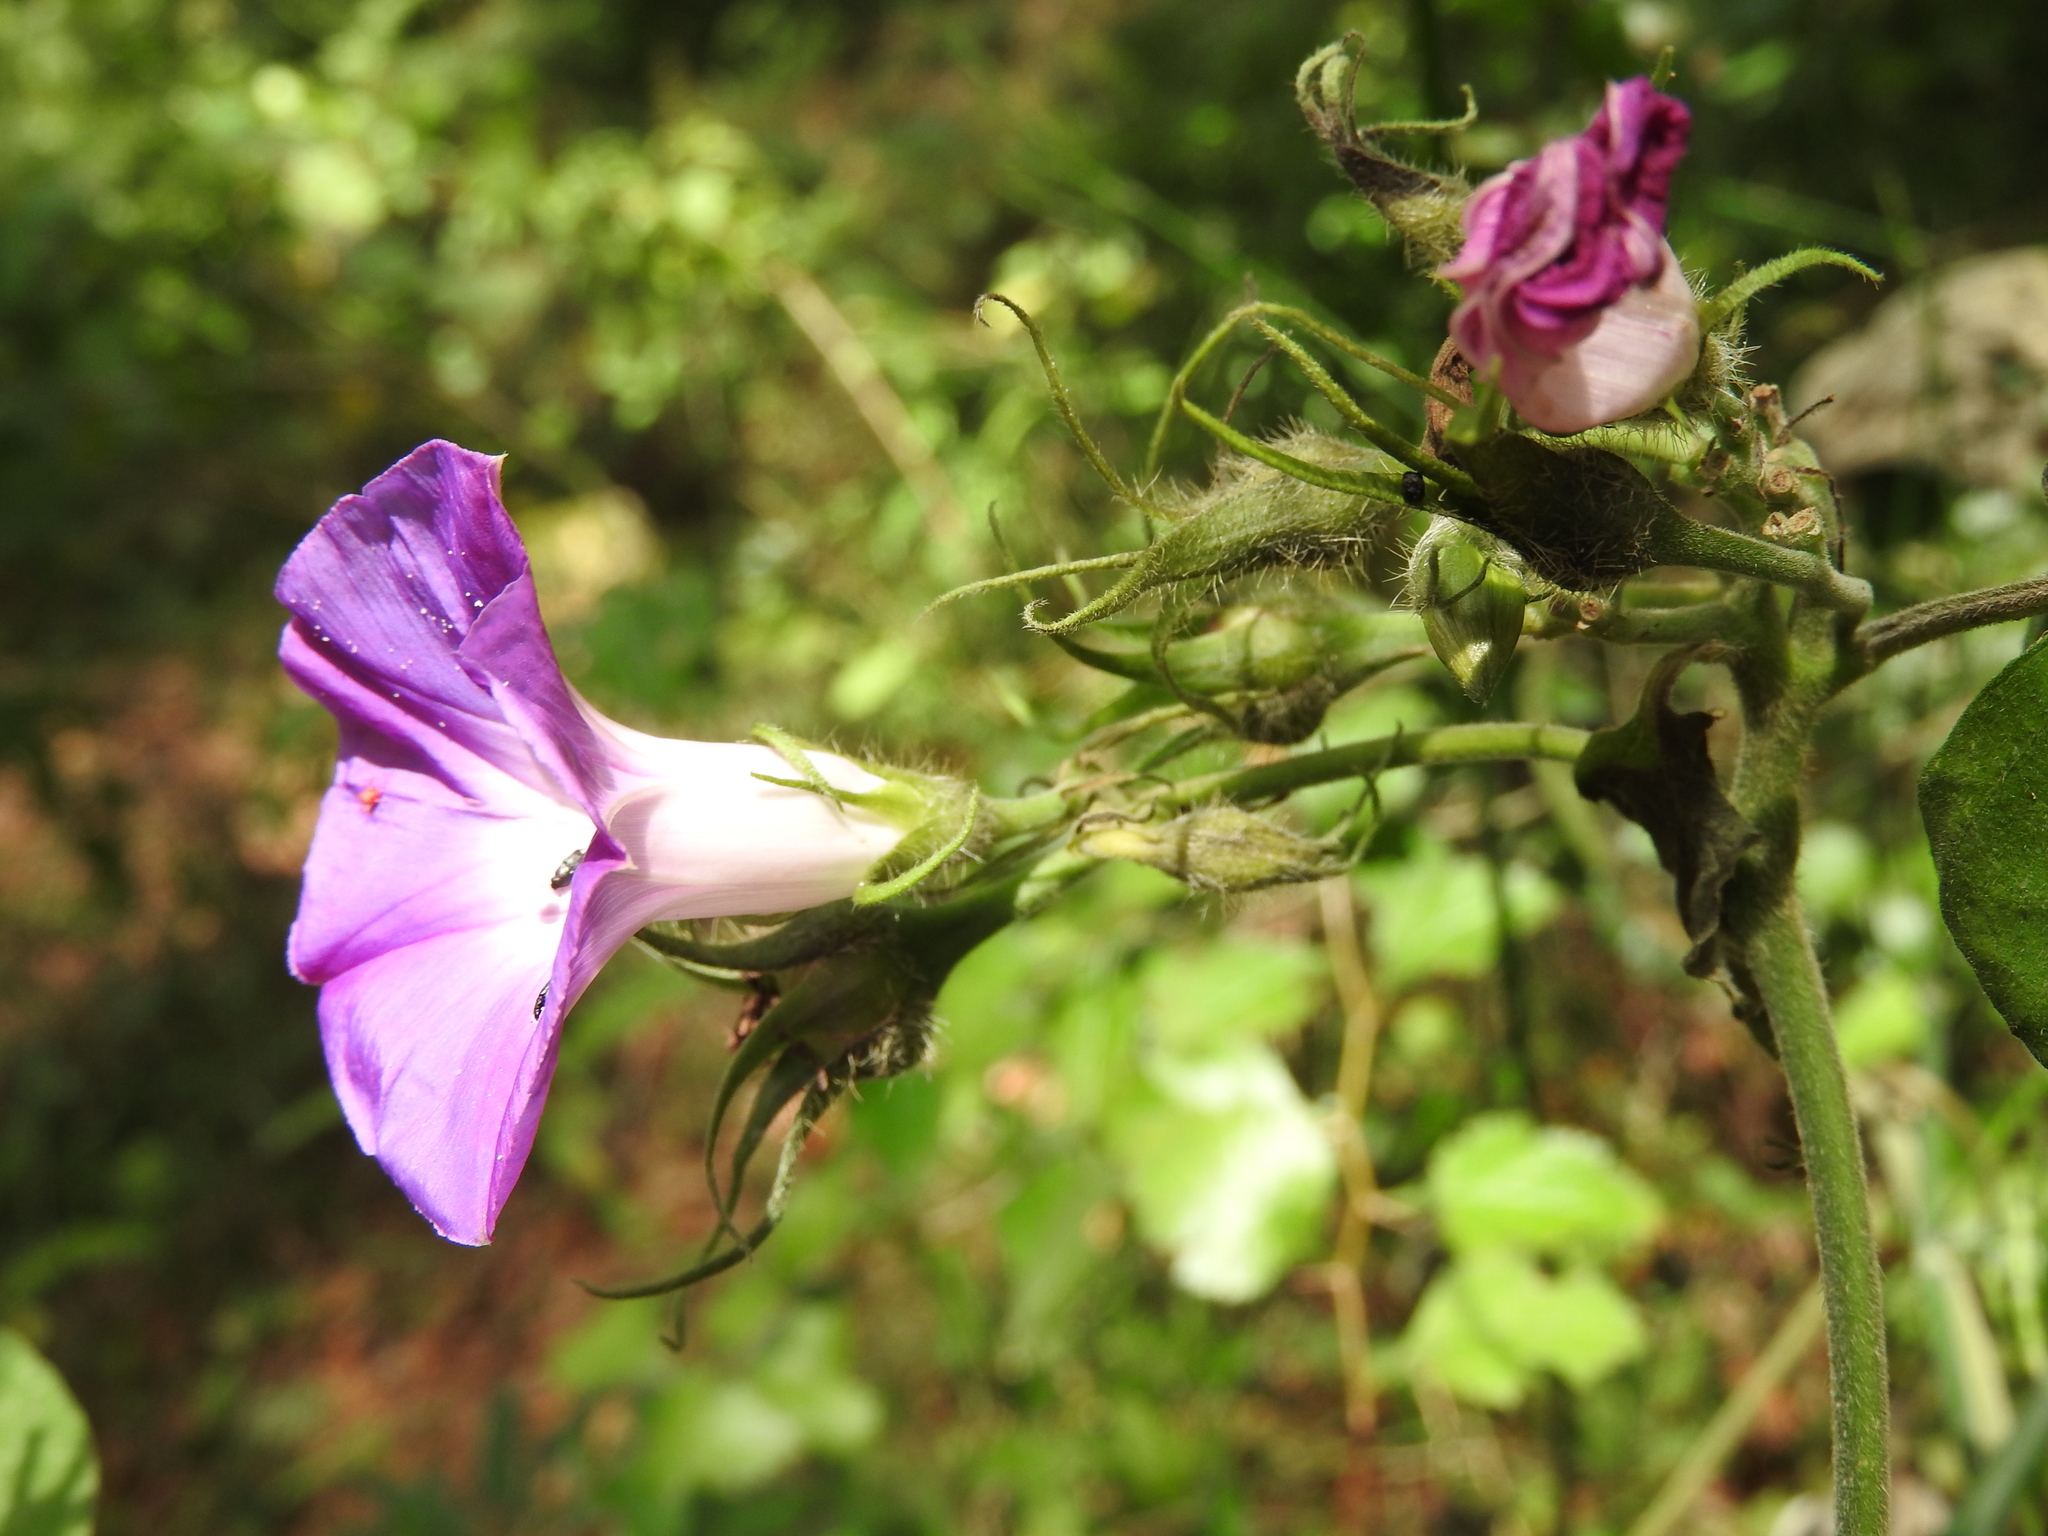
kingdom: Plantae
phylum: Tracheophyta
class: Magnoliopsida
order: Solanales
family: Convolvulaceae
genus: Ipomoea
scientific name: Ipomoea indica
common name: Blue dawnflower
